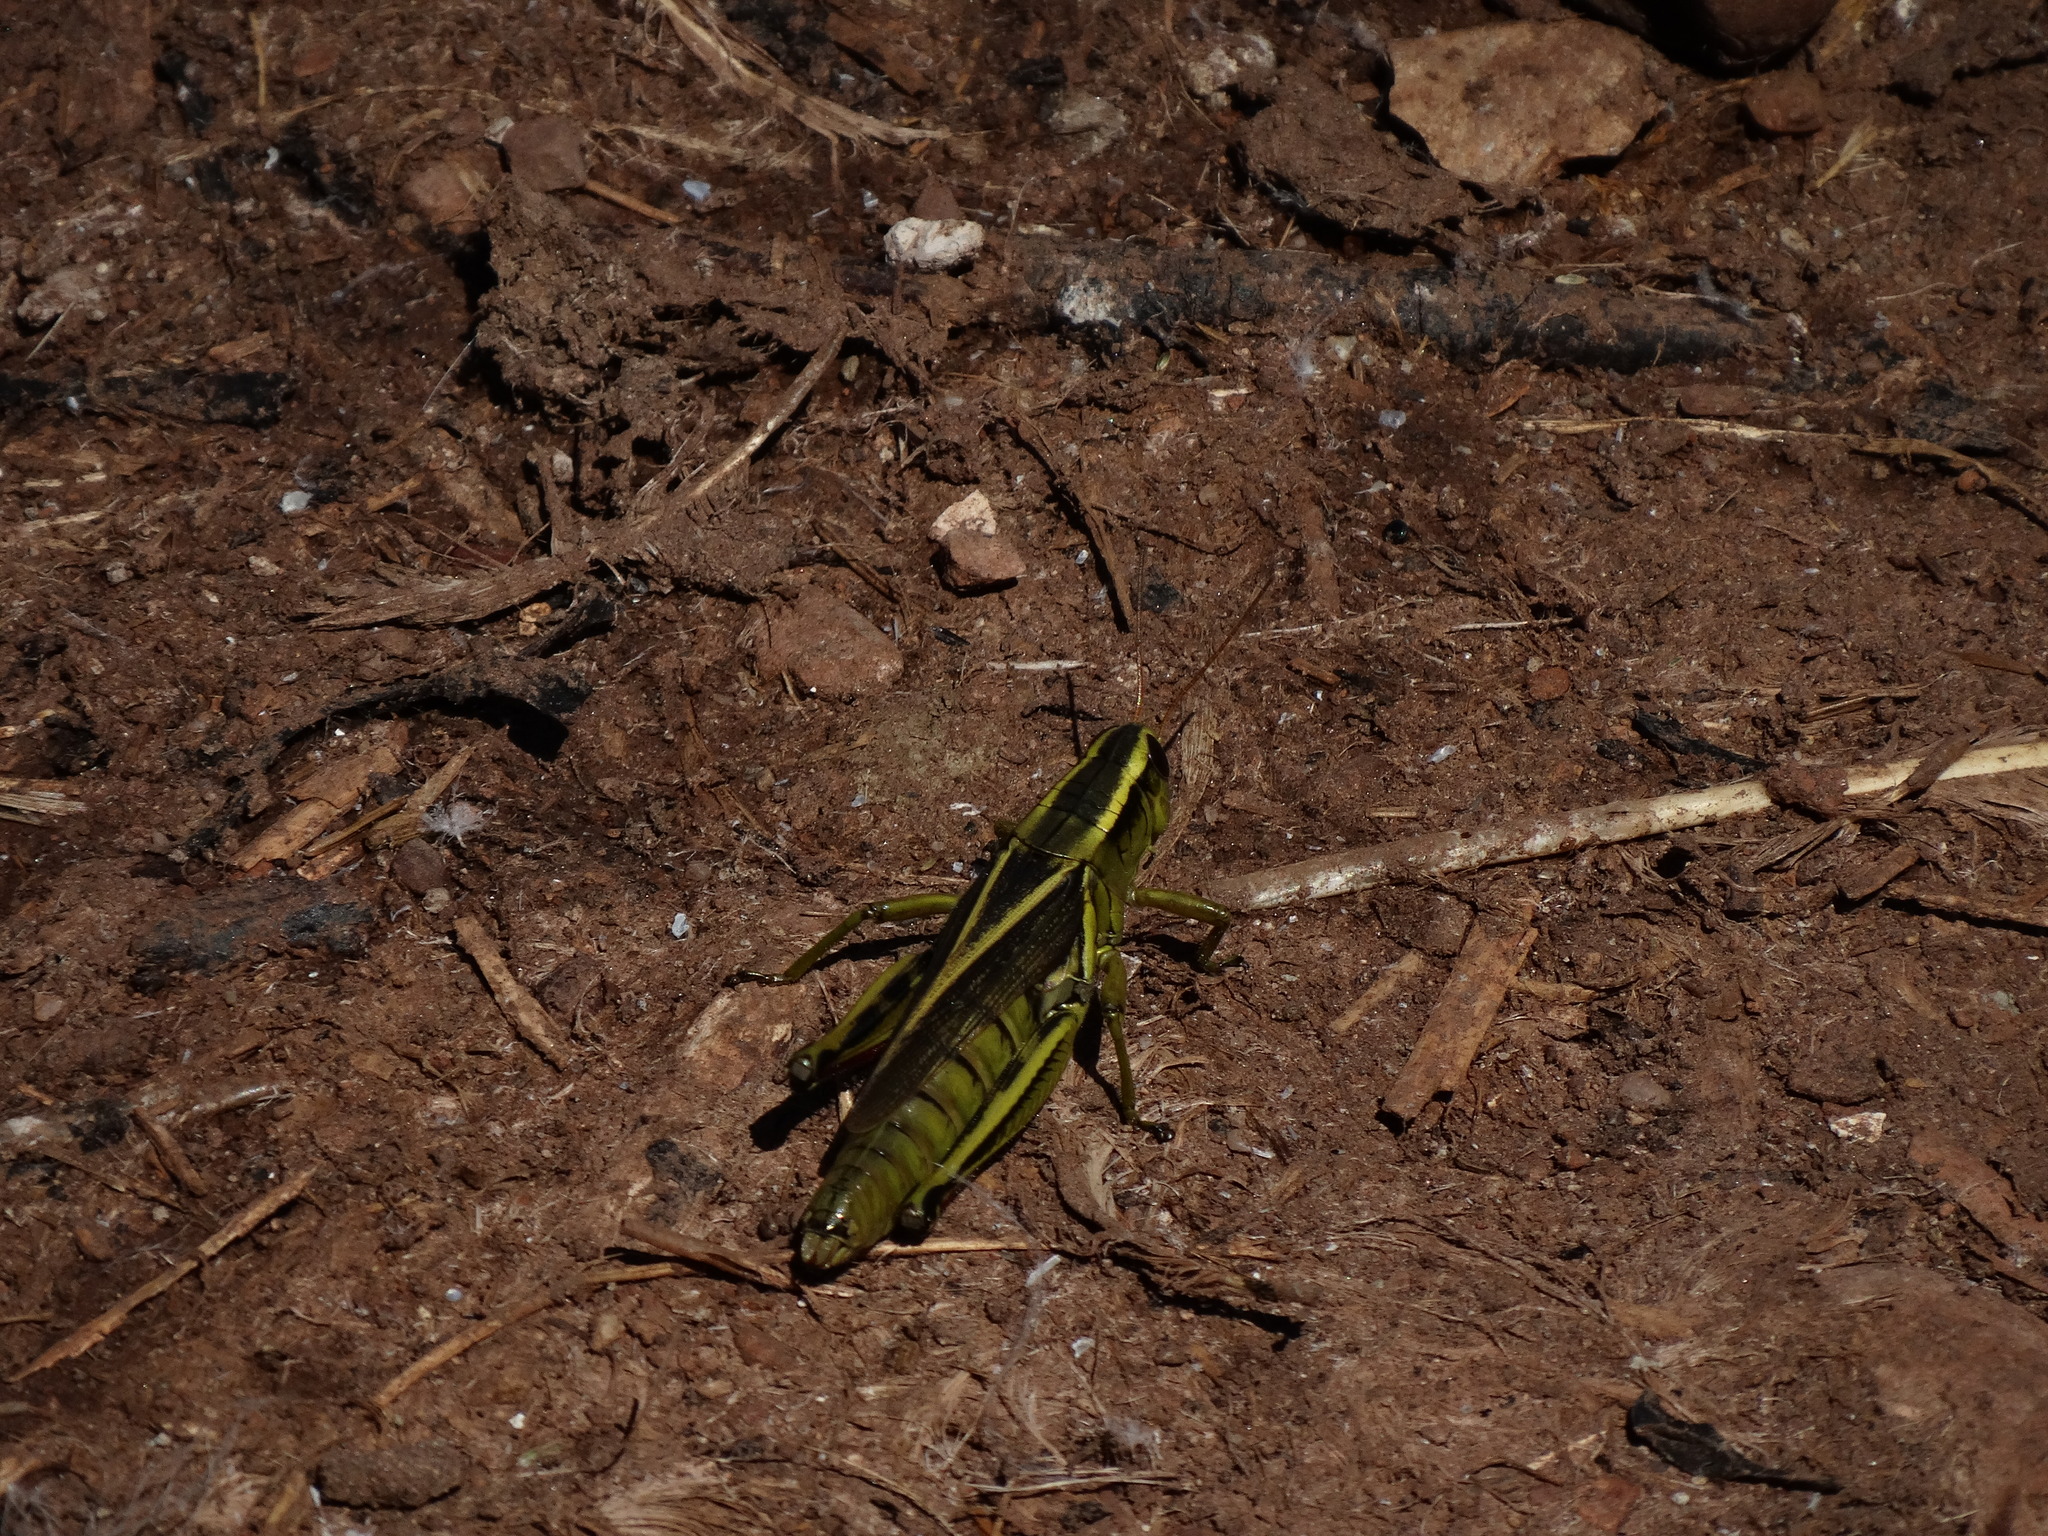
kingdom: Animalia
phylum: Arthropoda
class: Insecta
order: Orthoptera
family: Acrididae
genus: Melanoplus
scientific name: Melanoplus bivittatus
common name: Two-striped grasshopper
